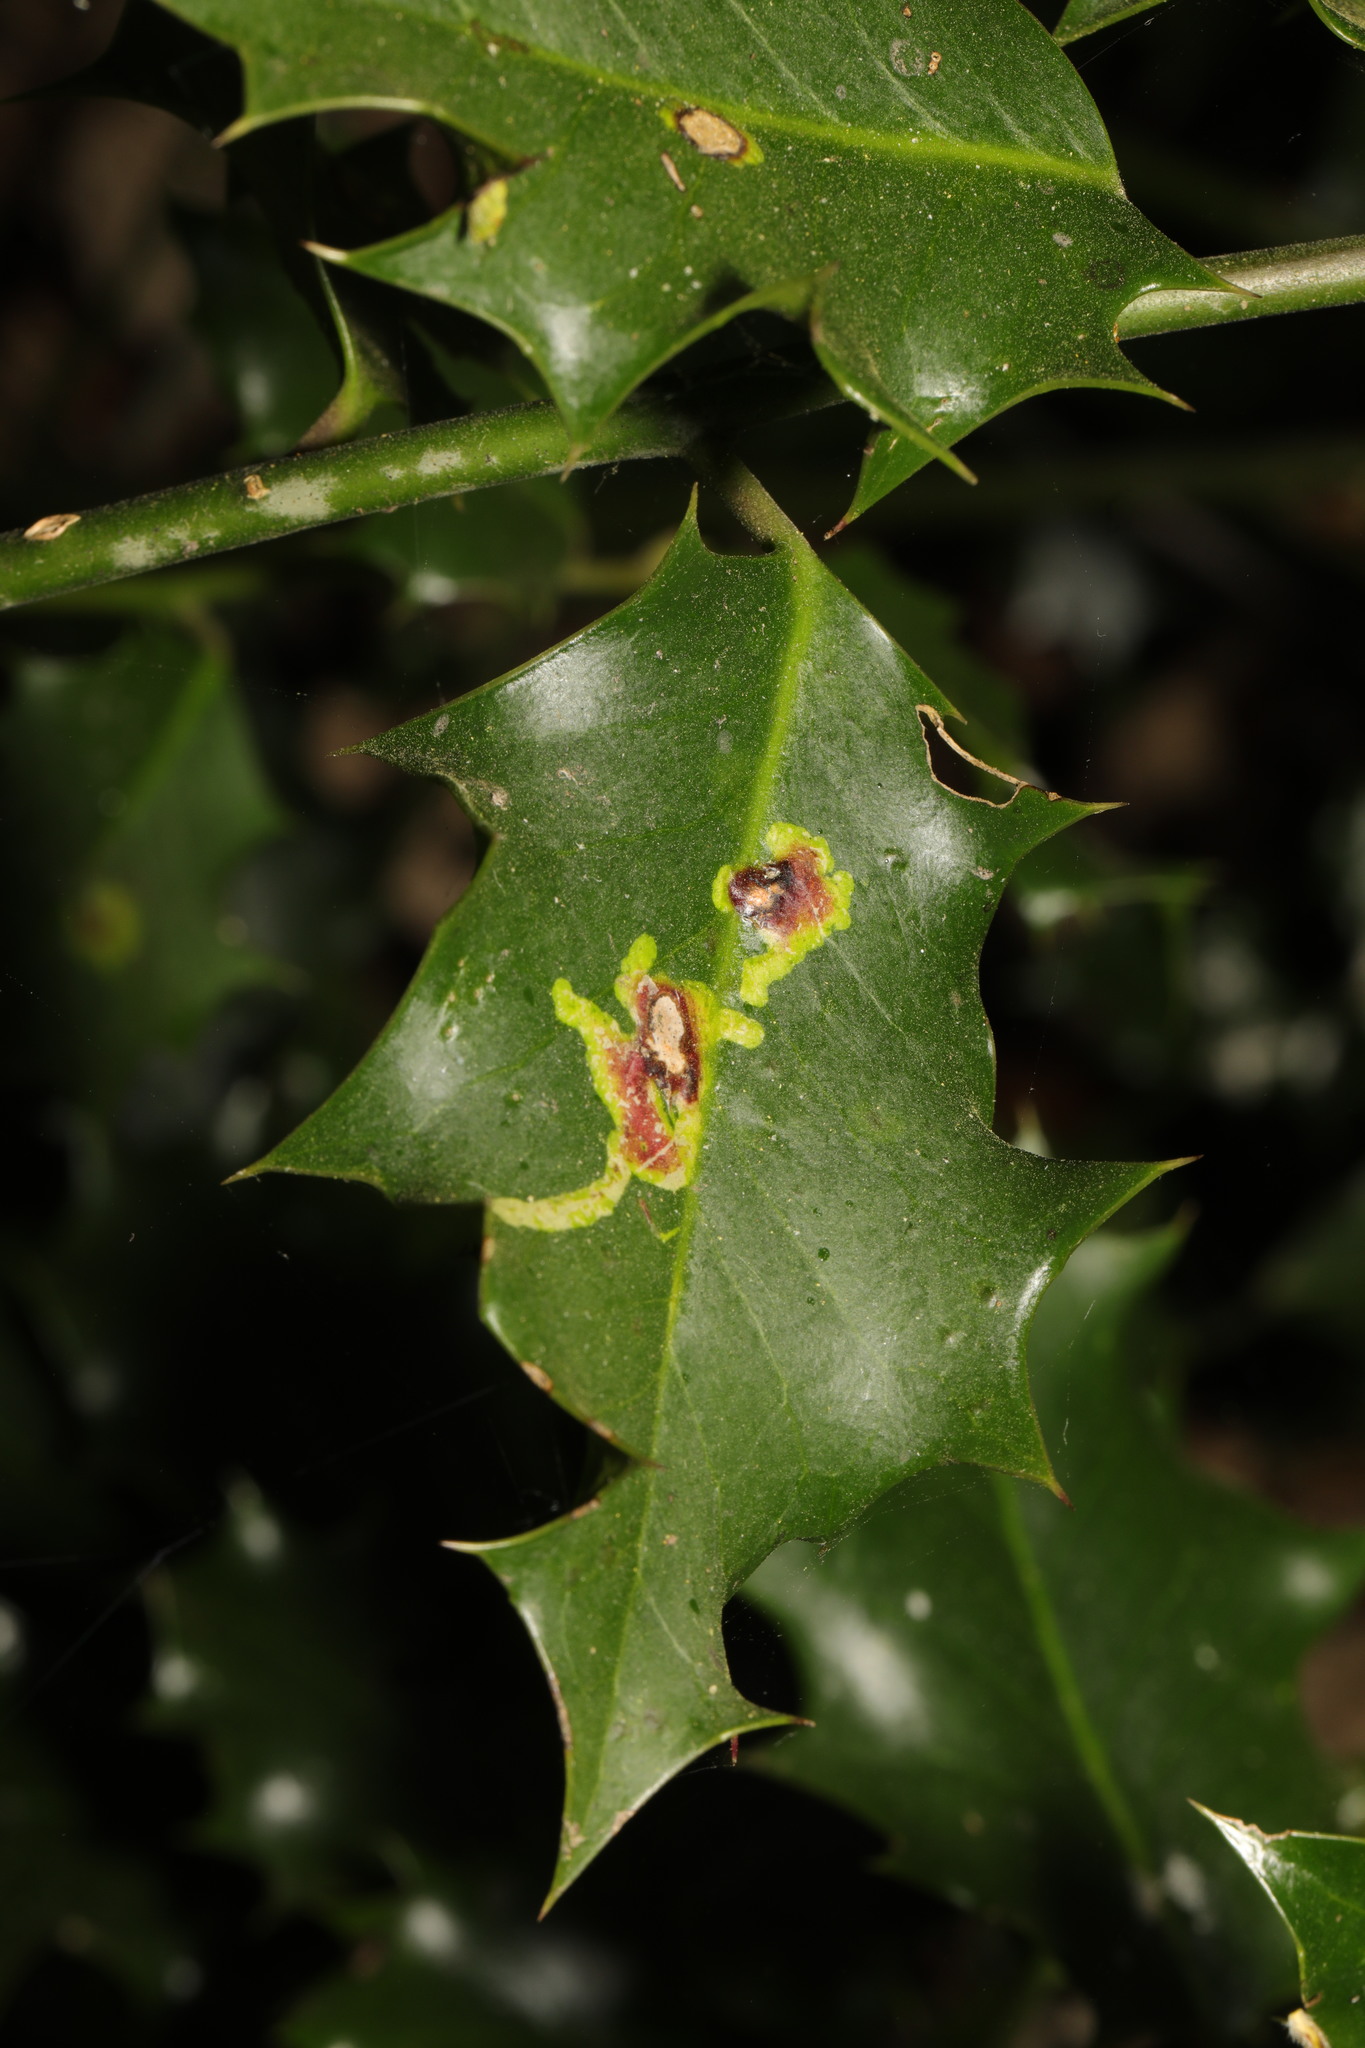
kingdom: Animalia
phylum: Arthropoda
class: Insecta
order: Diptera
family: Agromyzidae
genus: Phytomyza
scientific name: Phytomyza ilicis
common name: Holly leafminer
